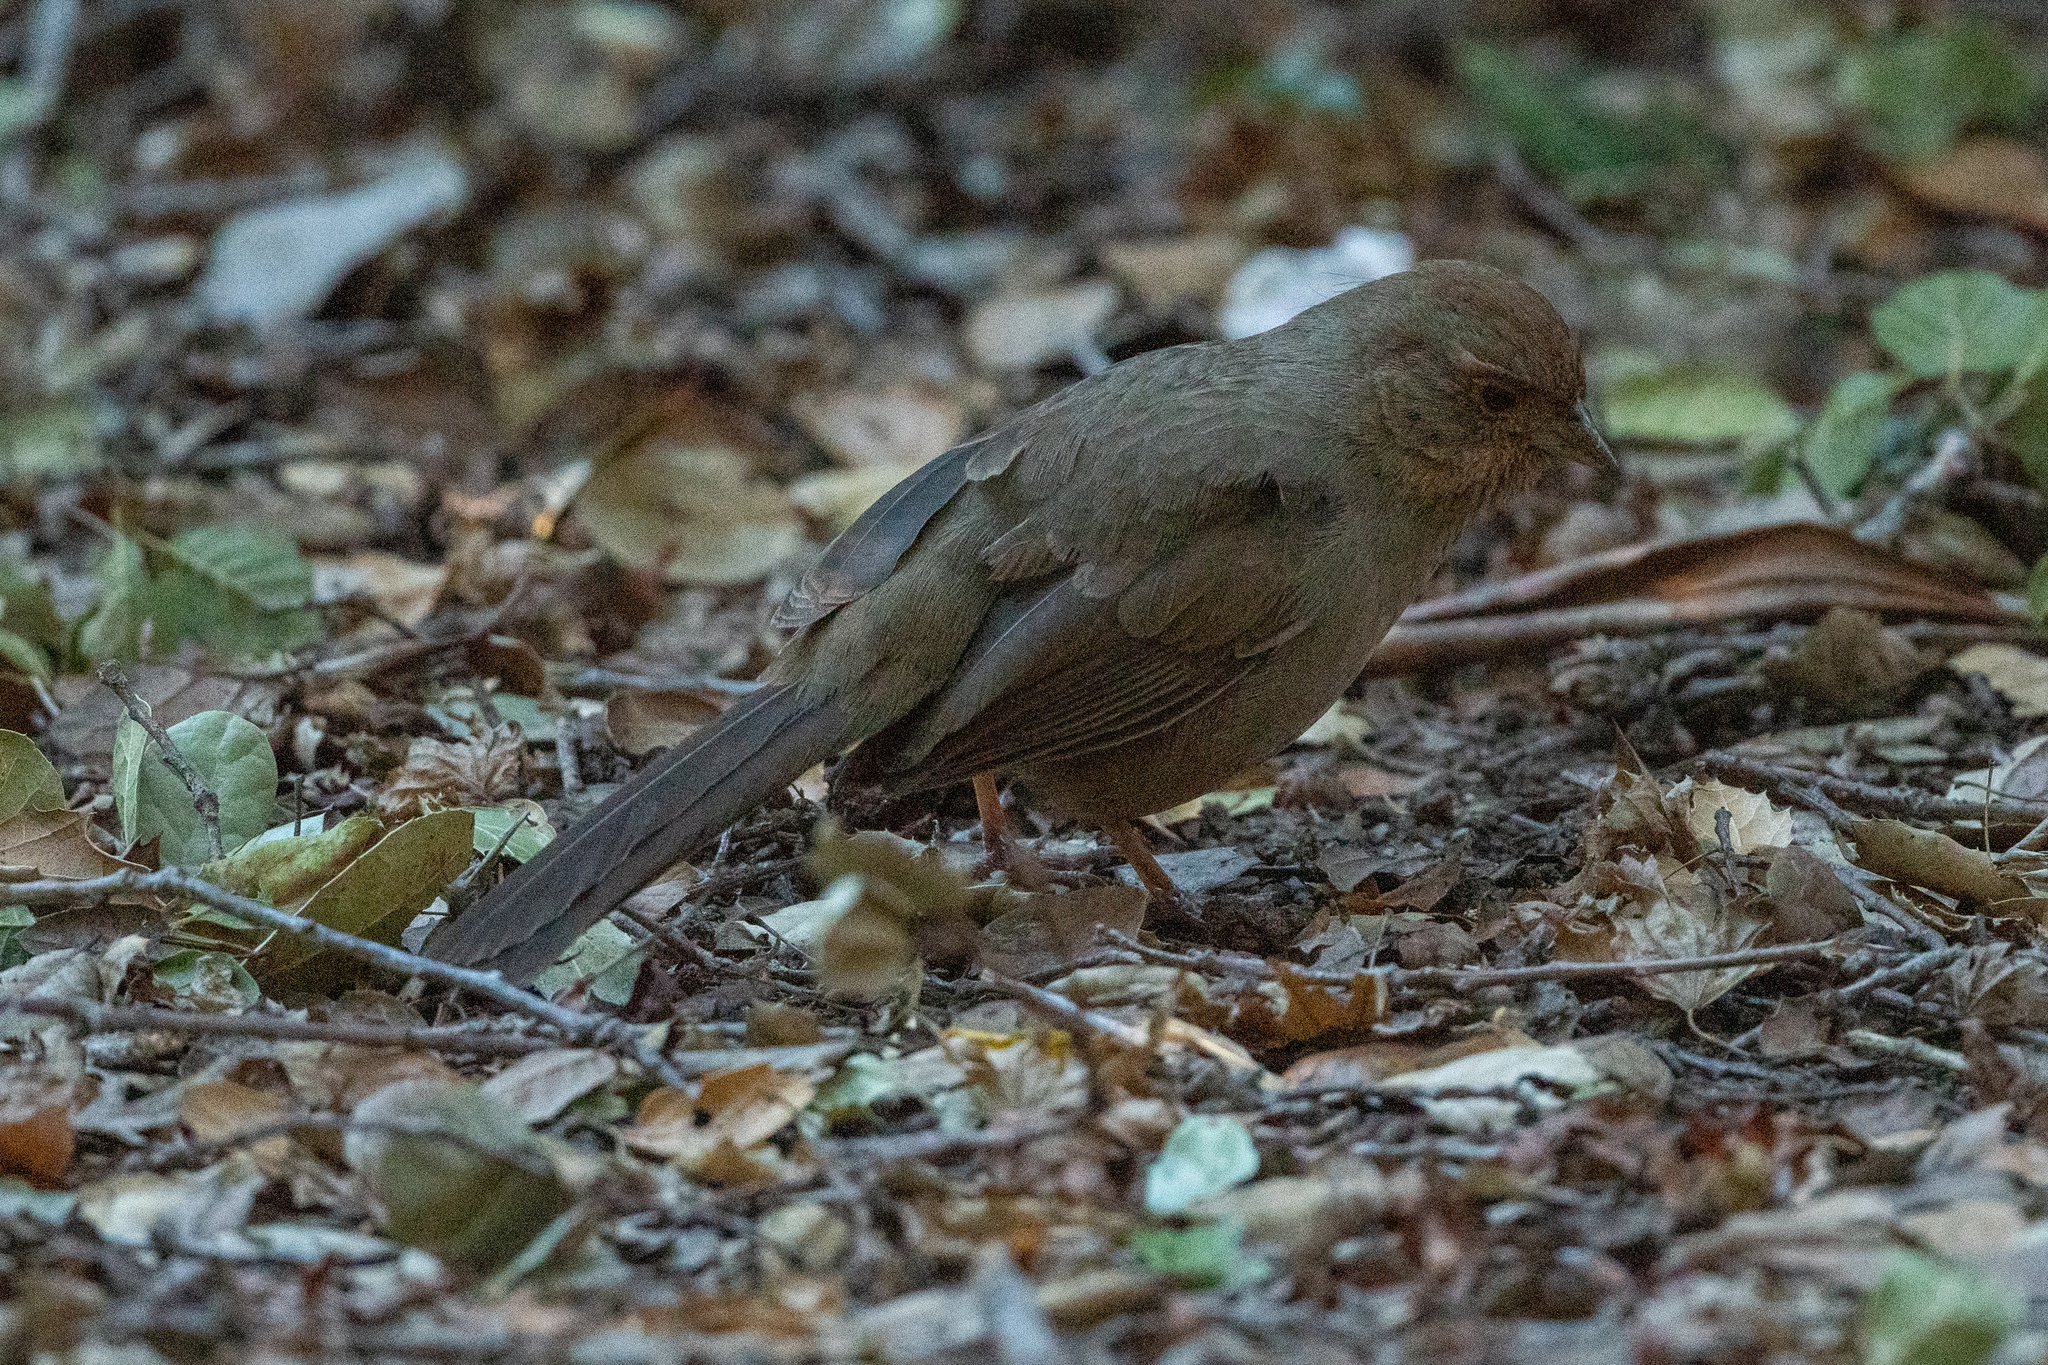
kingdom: Animalia
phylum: Chordata
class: Aves
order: Passeriformes
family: Passerellidae
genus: Melozone
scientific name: Melozone crissalis
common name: California towhee
